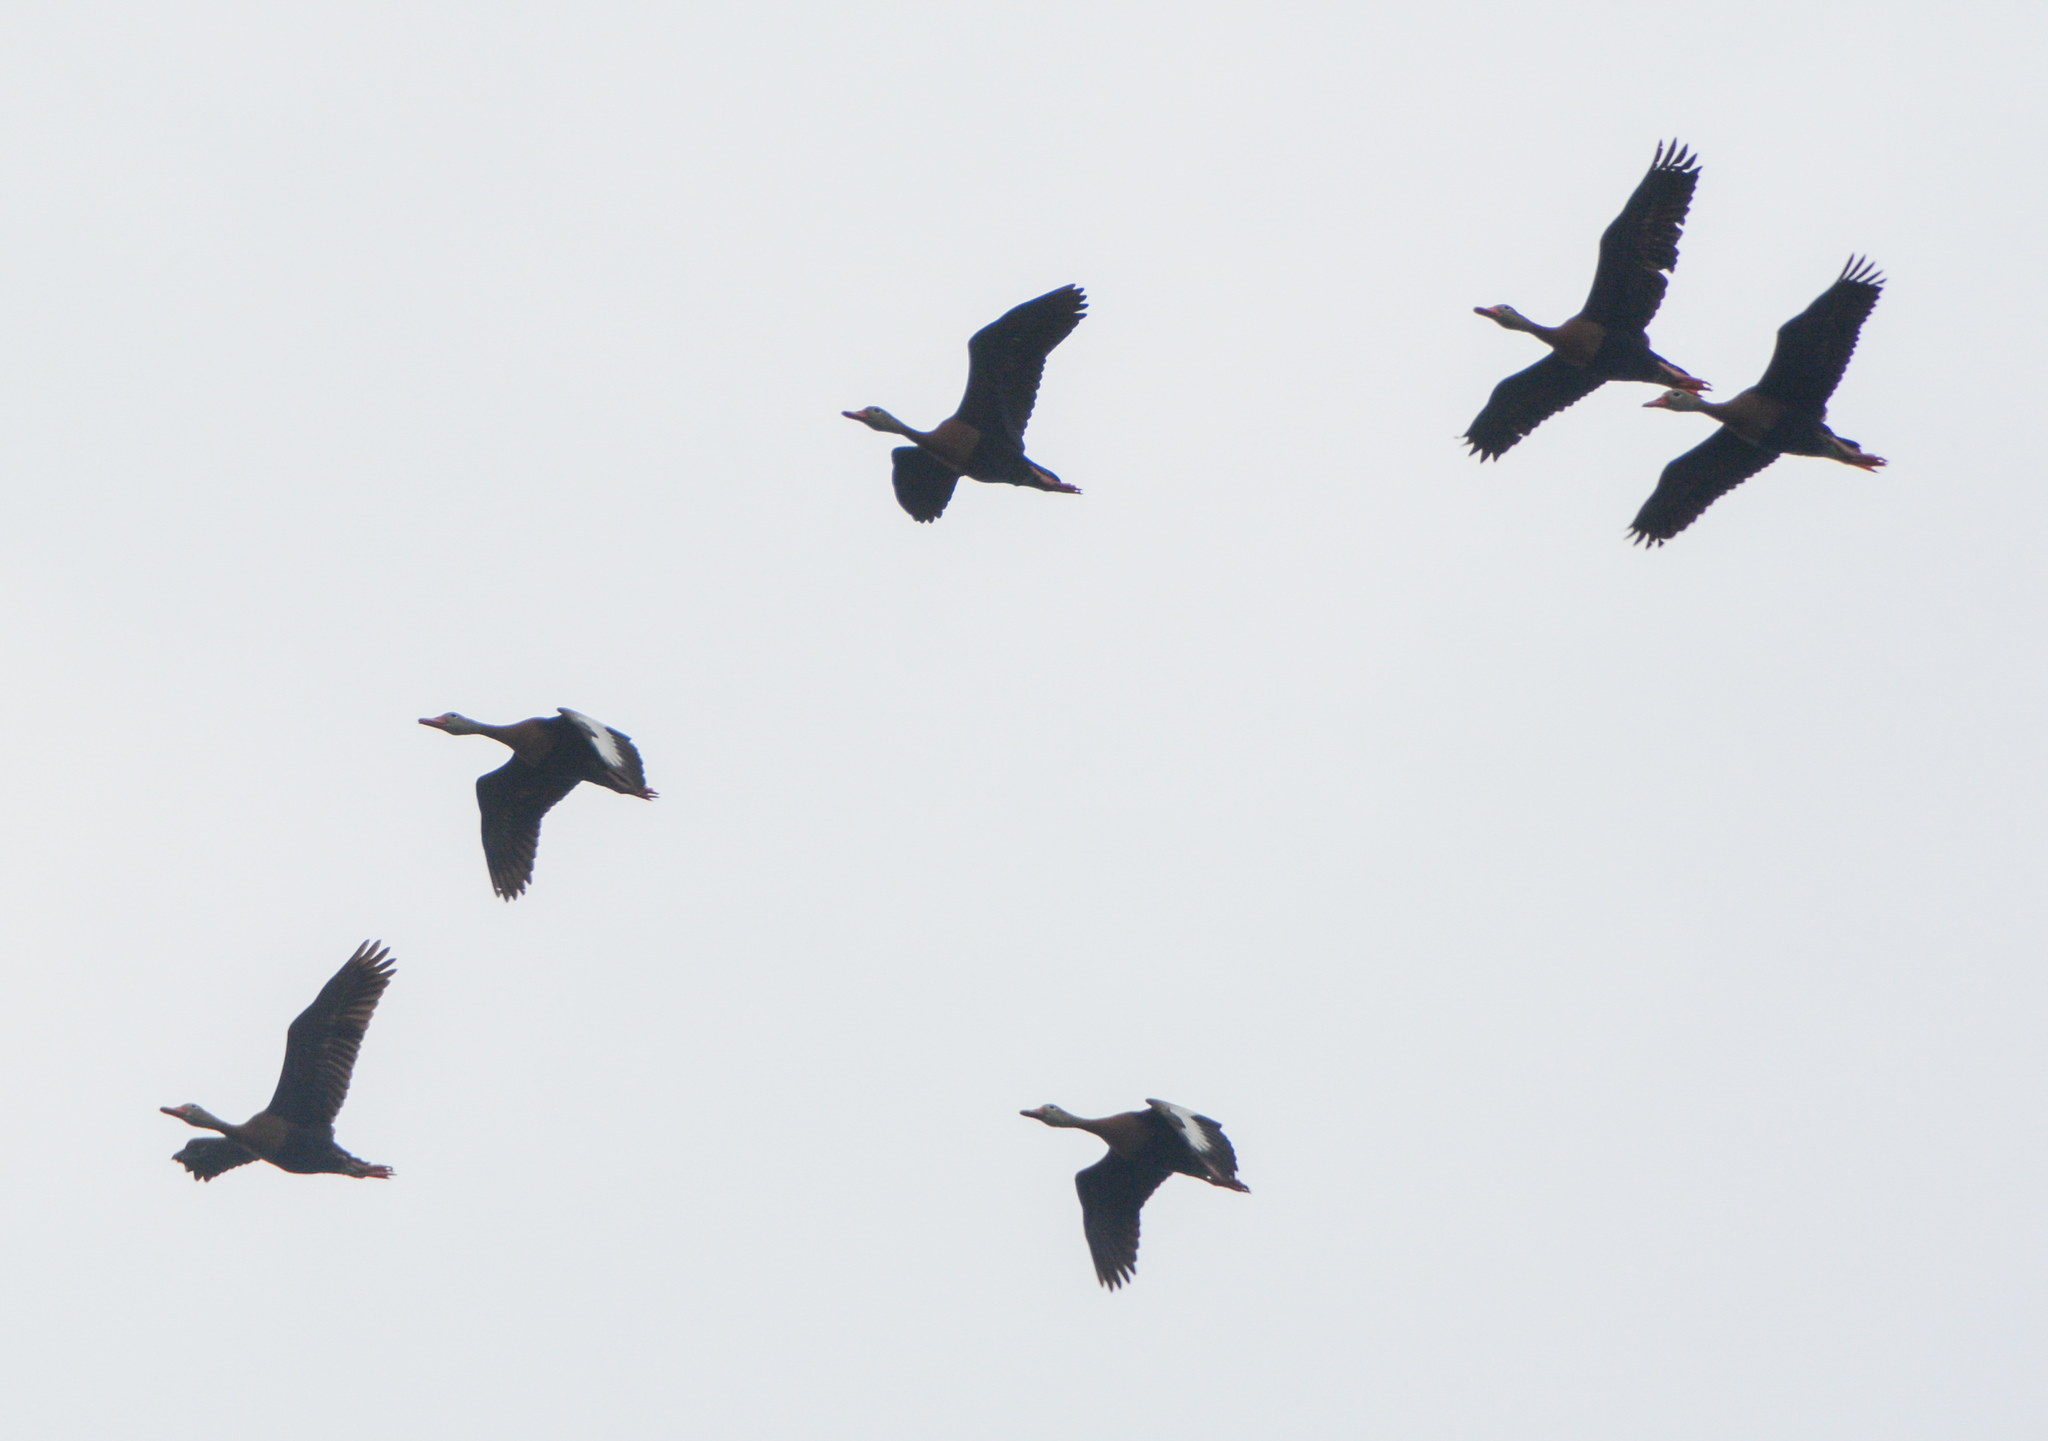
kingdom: Animalia
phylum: Chordata
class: Aves
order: Anseriformes
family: Anatidae
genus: Dendrocygna
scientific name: Dendrocygna autumnalis
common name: Black-bellied whistling duck
